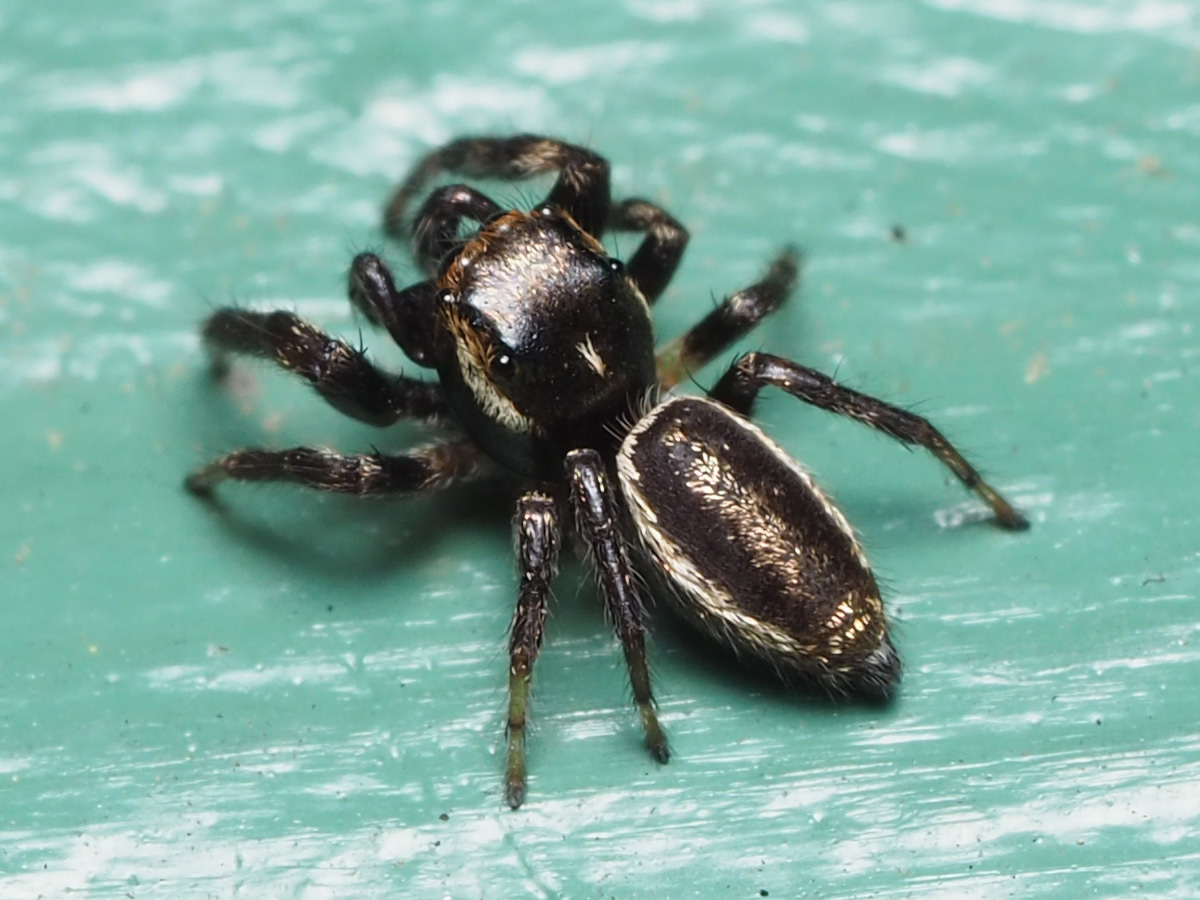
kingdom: Animalia
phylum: Arthropoda
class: Arachnida
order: Araneae
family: Salticidae
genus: Eris
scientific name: Eris militaris
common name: Bronze jumper
